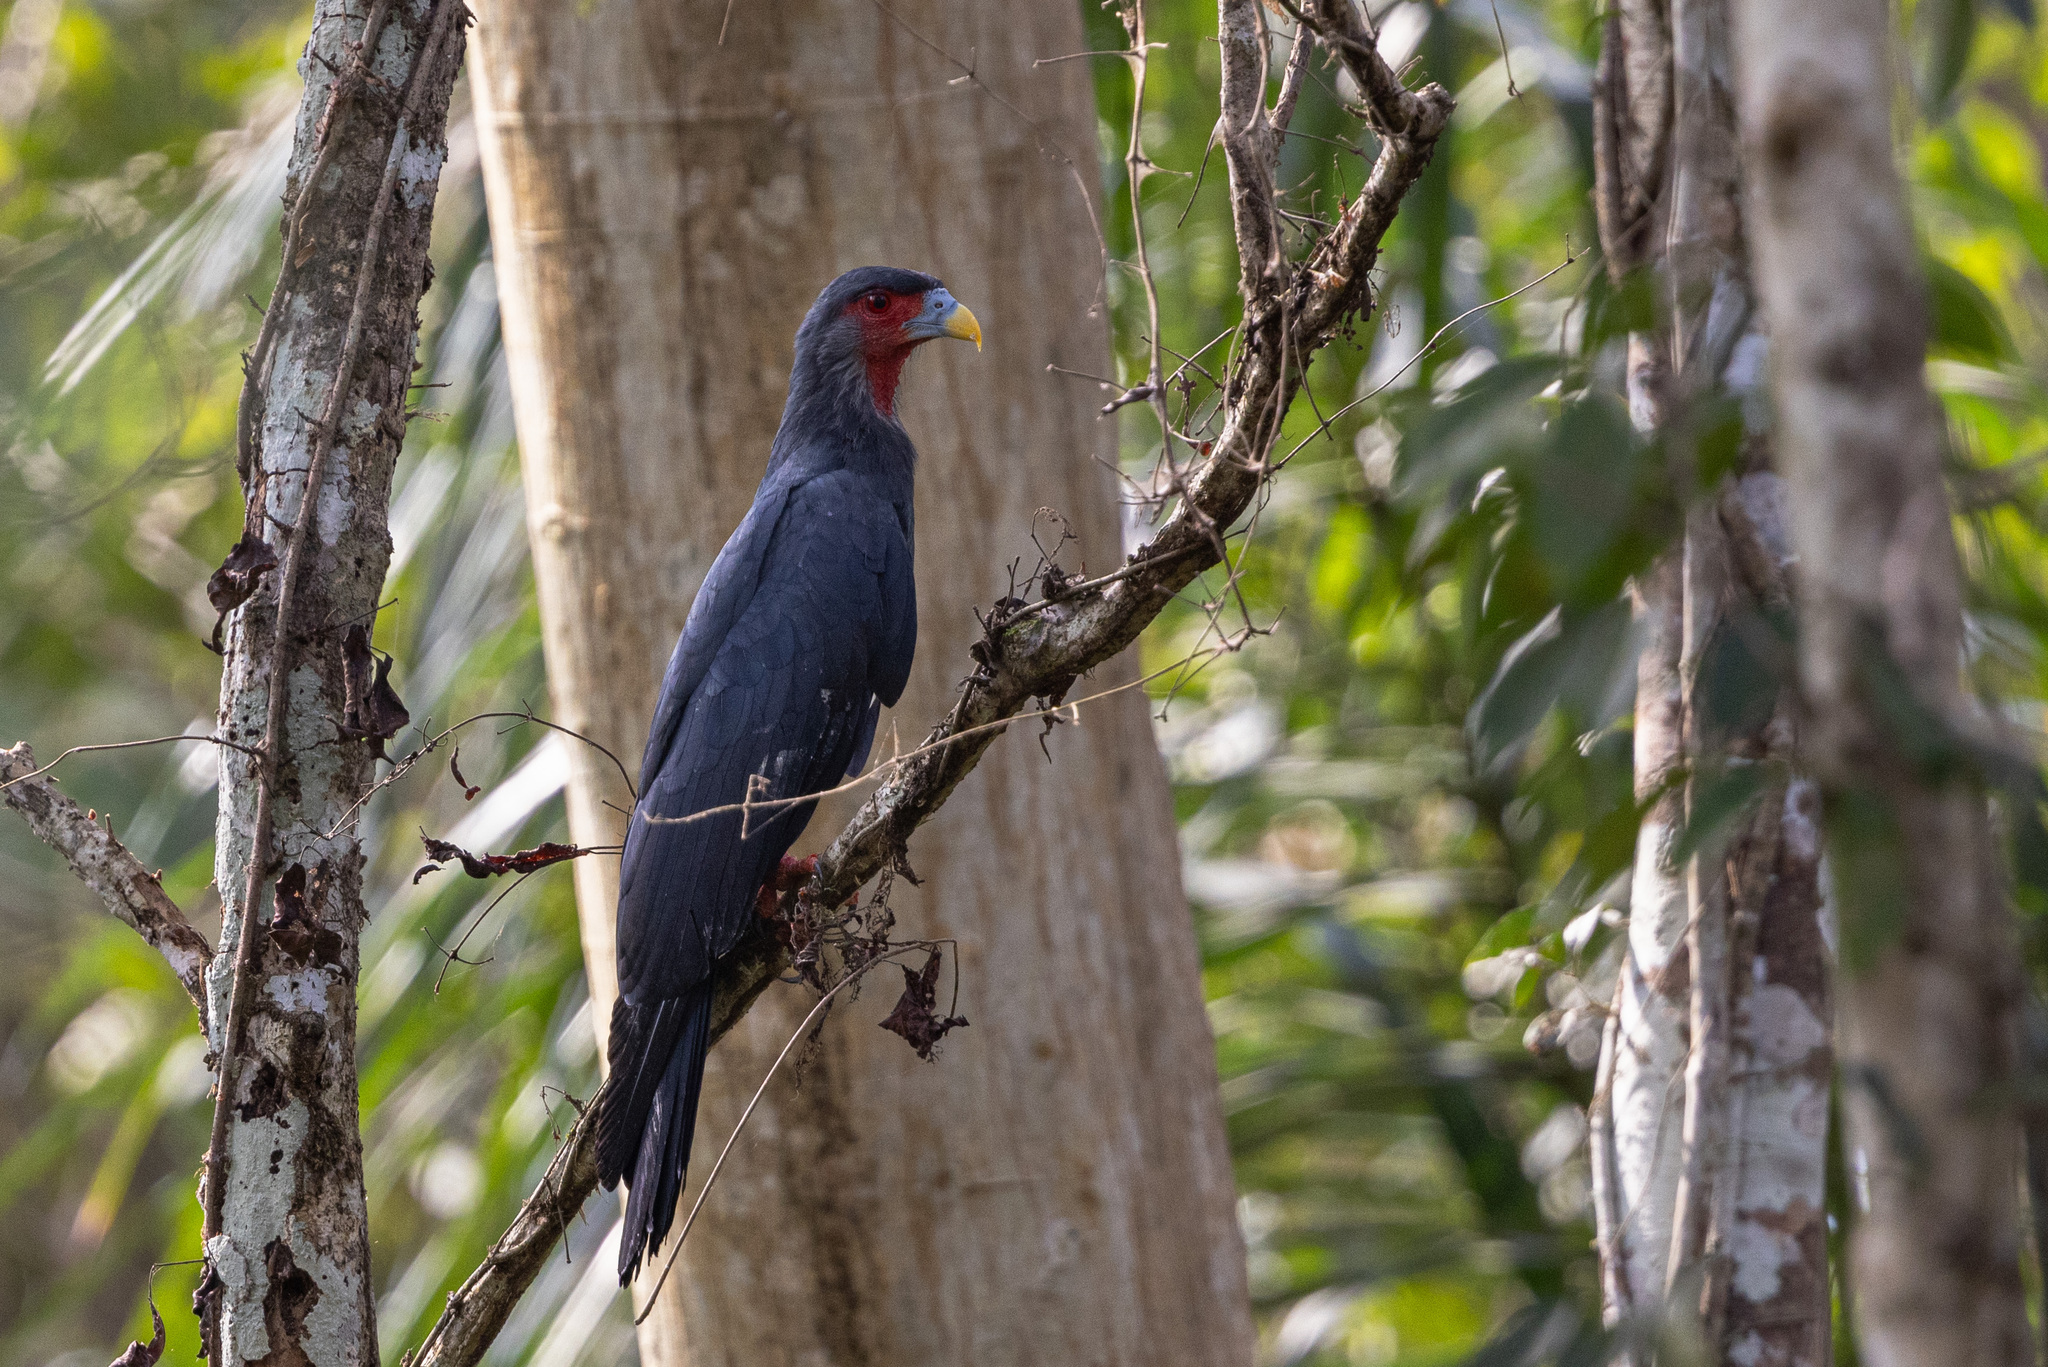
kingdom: Animalia
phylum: Chordata
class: Aves
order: Falconiformes
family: Falconidae
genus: Ibycter
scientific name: Ibycter americanus
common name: Red-throated caracara
